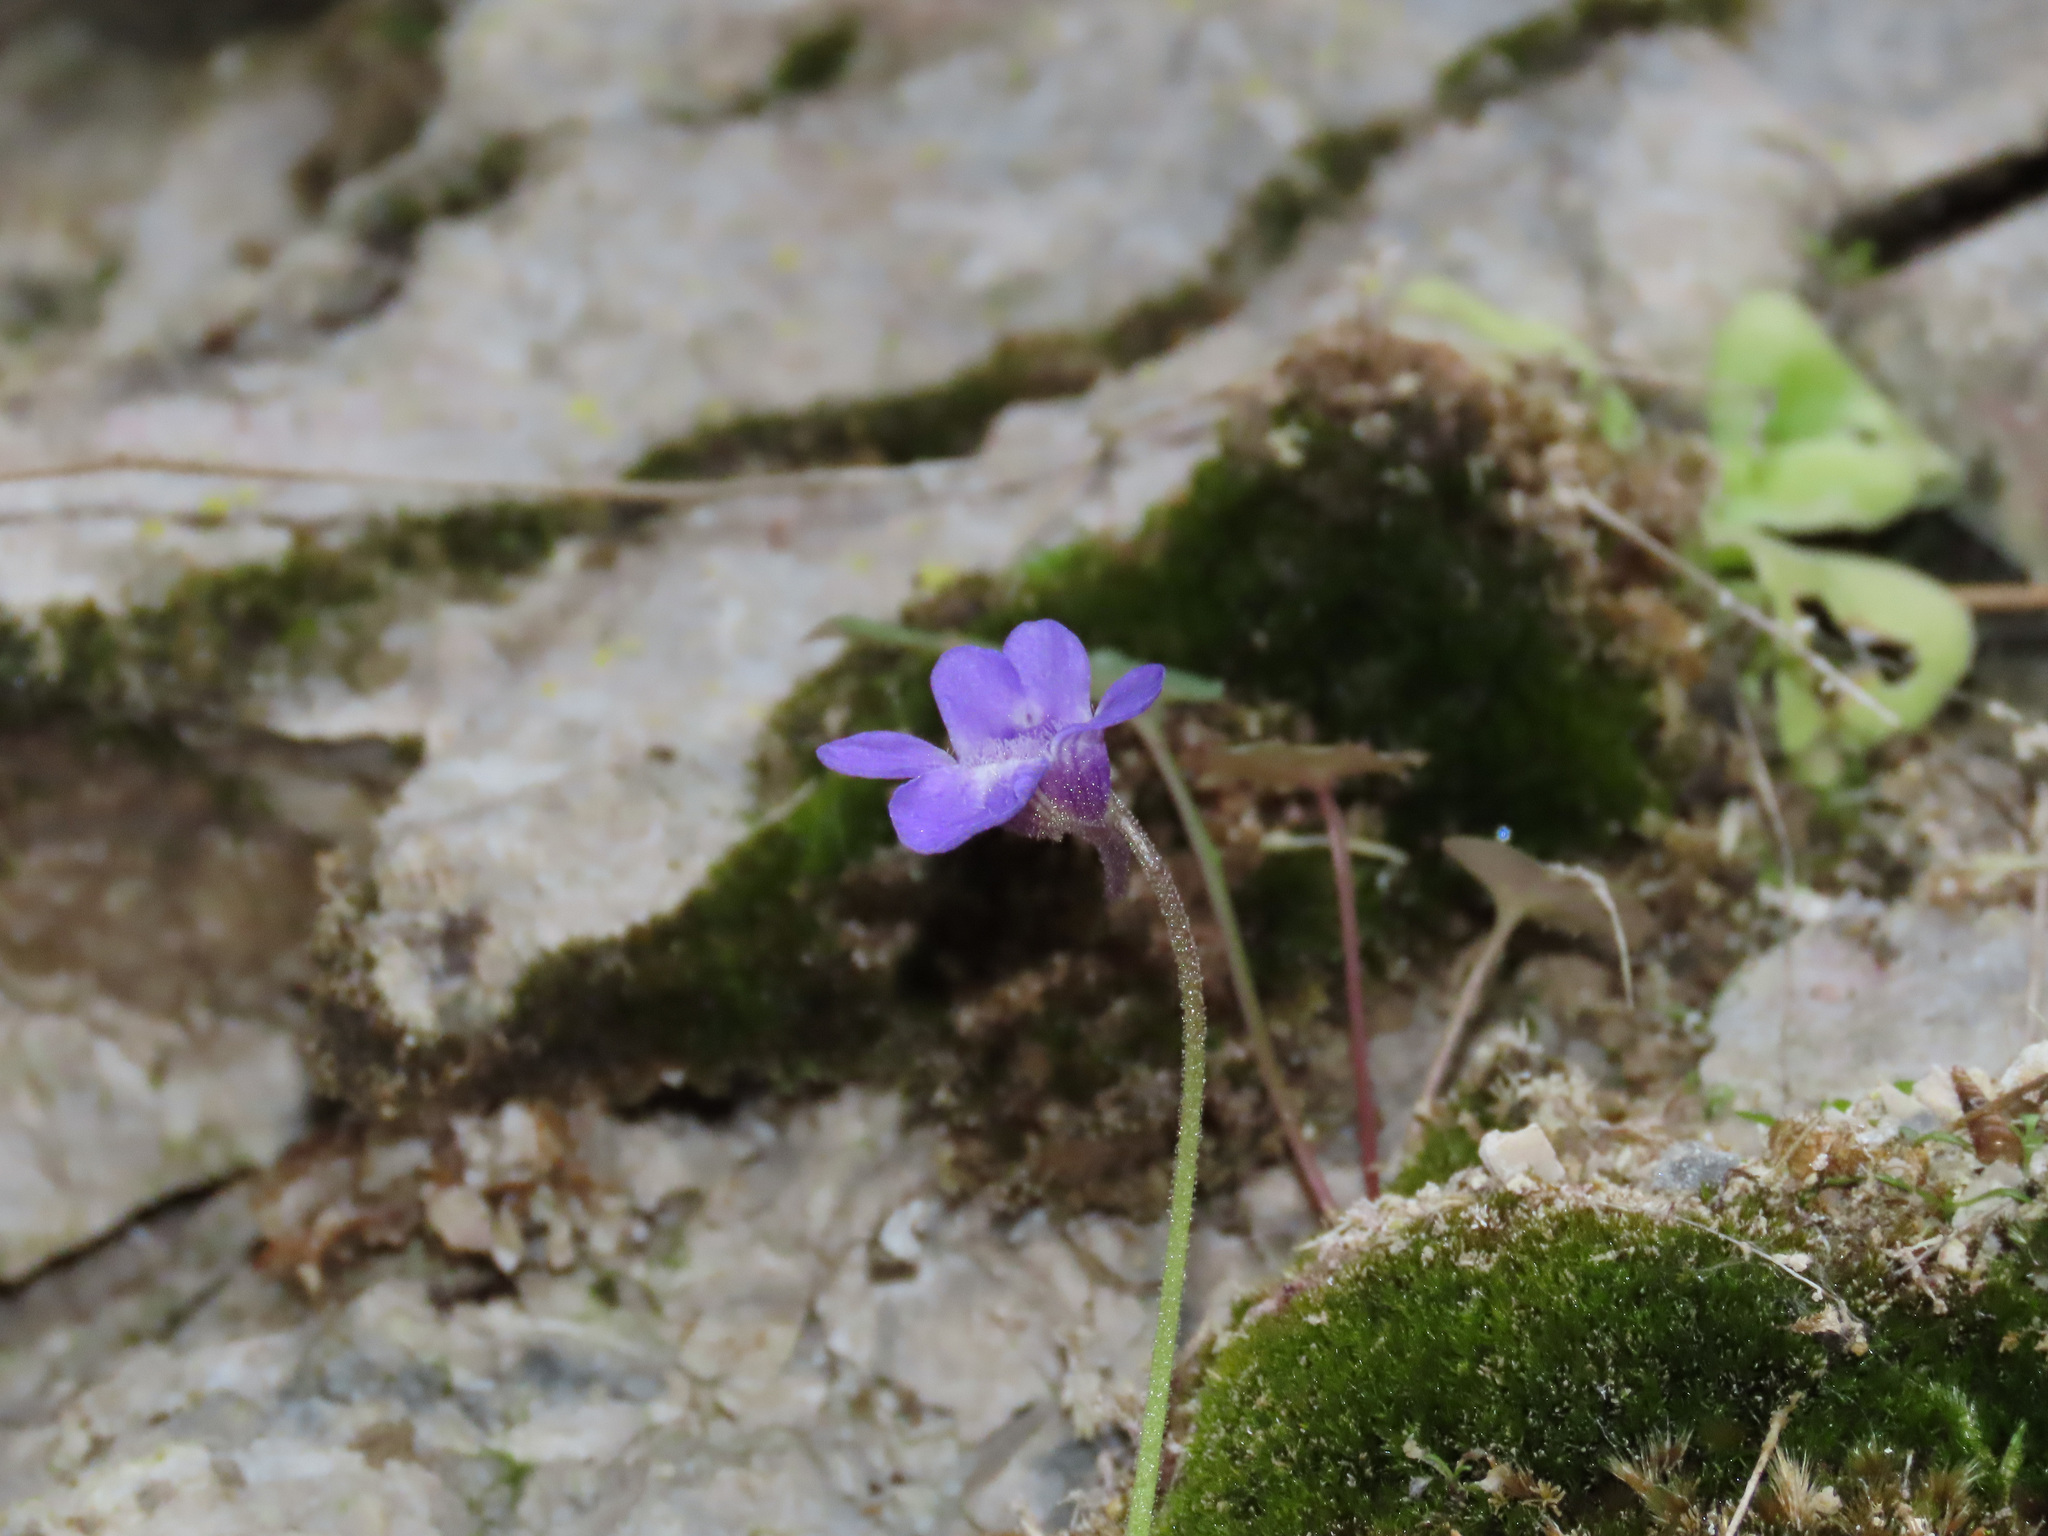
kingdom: Plantae
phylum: Tracheophyta
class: Magnoliopsida
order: Lamiales
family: Lentibulariaceae
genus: Pinguicula
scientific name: Pinguicula vallis-regiae
